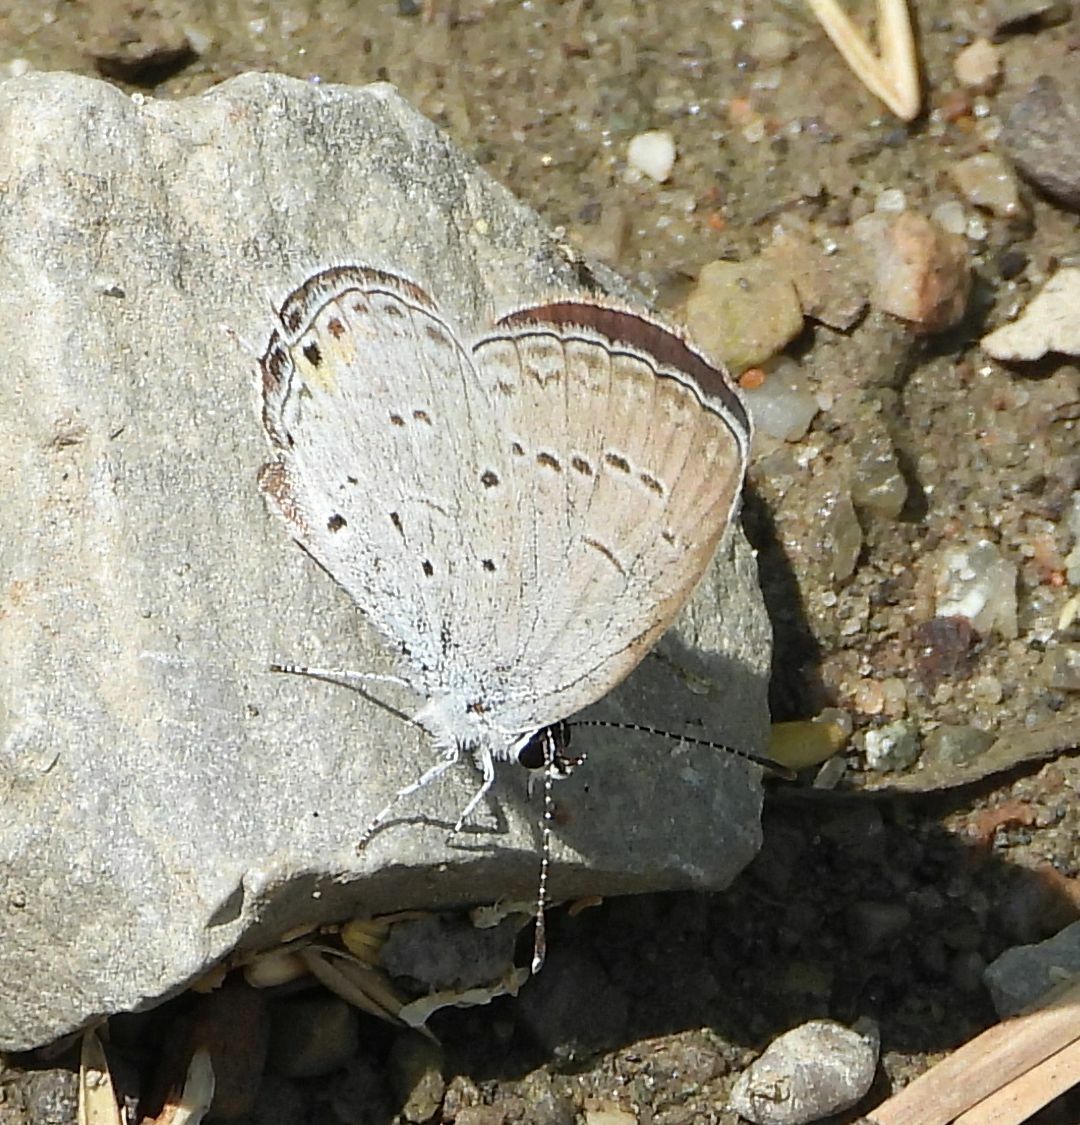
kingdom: Animalia
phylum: Arthropoda
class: Insecta
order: Lepidoptera
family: Lycaenidae
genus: Elkalyce
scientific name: Elkalyce comyntas
